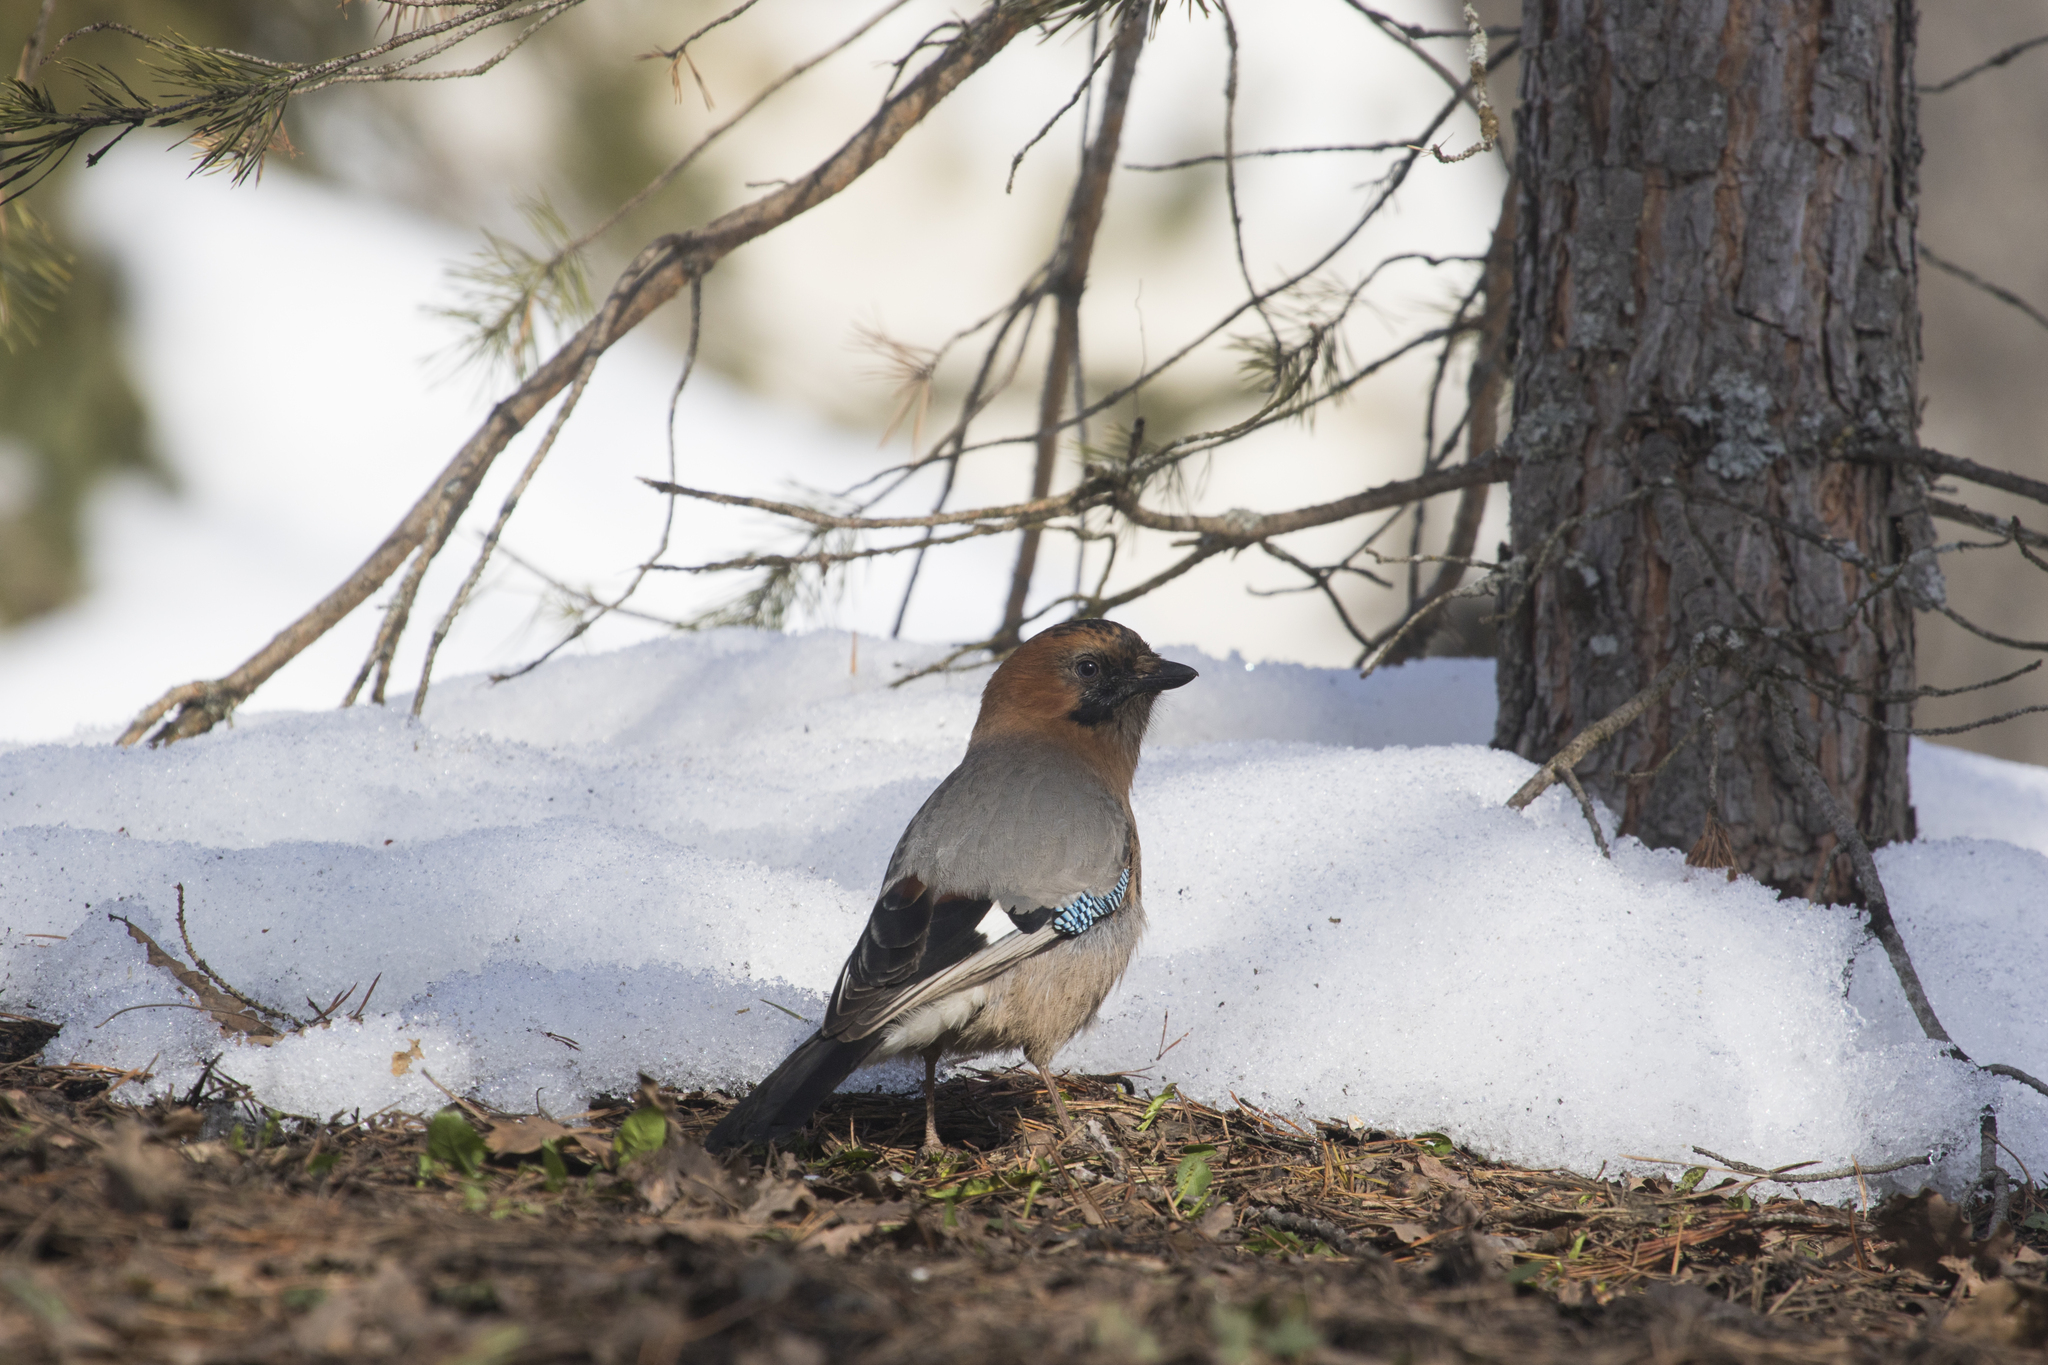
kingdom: Animalia
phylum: Chordata
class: Aves
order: Passeriformes
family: Corvidae
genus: Garrulus
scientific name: Garrulus glandarius
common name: Eurasian jay
